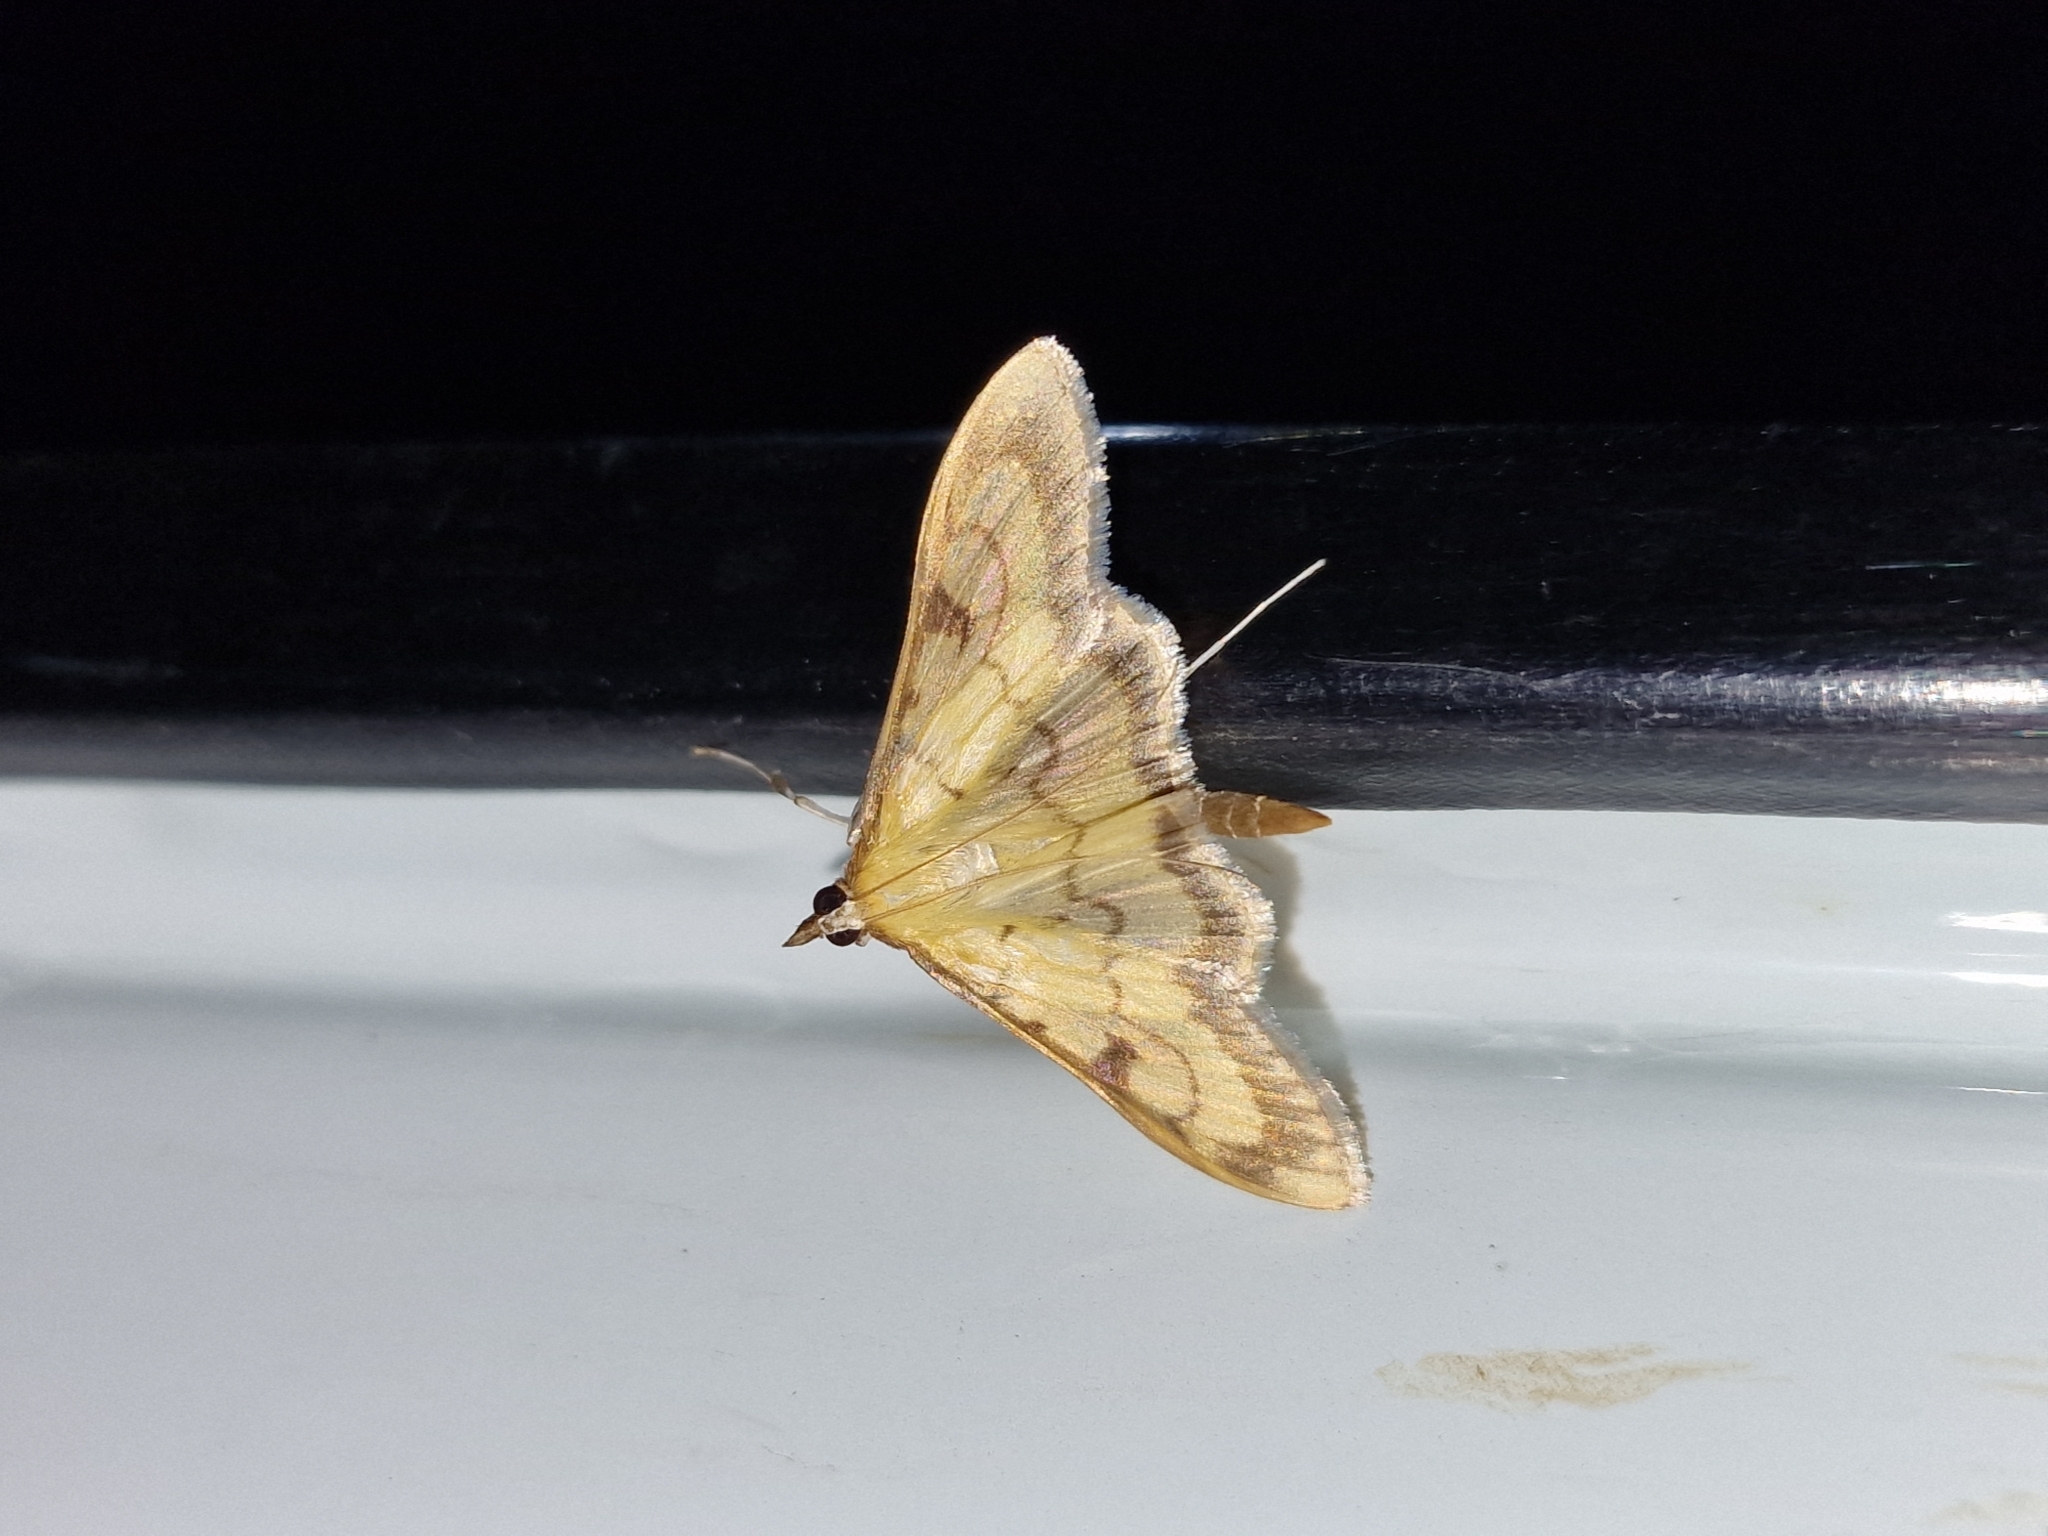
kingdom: Animalia
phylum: Arthropoda
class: Insecta
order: Lepidoptera
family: Crambidae
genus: Paratalanta
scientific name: Paratalanta ussurialis
